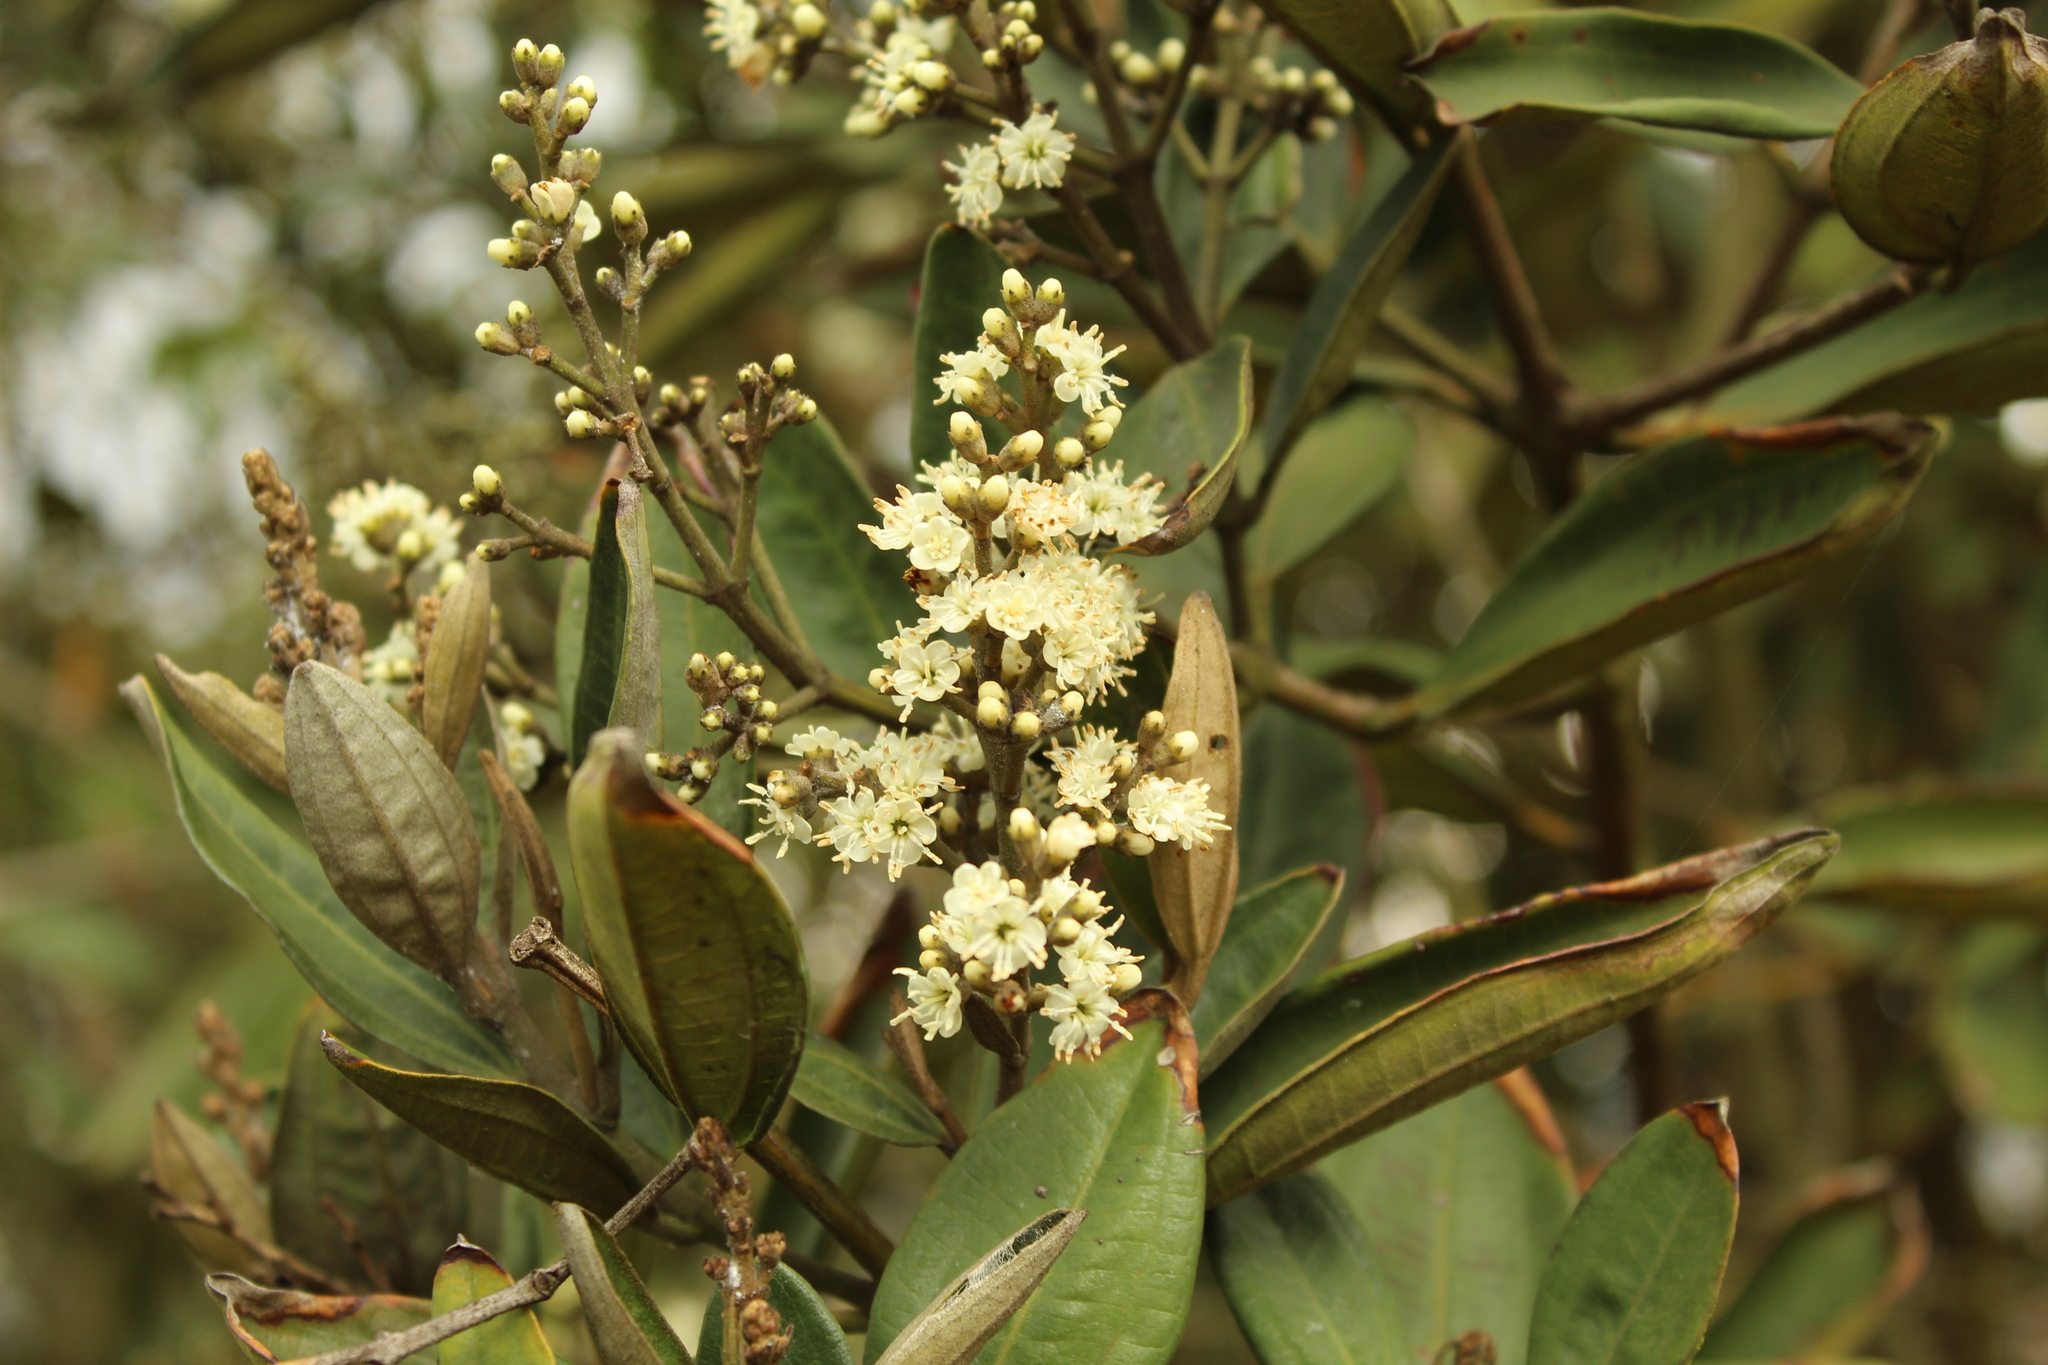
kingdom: Plantae
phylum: Tracheophyta
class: Magnoliopsida
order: Myrtales
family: Melastomataceae
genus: Miconia
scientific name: Miconia squamulosa
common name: Squamulose maya
